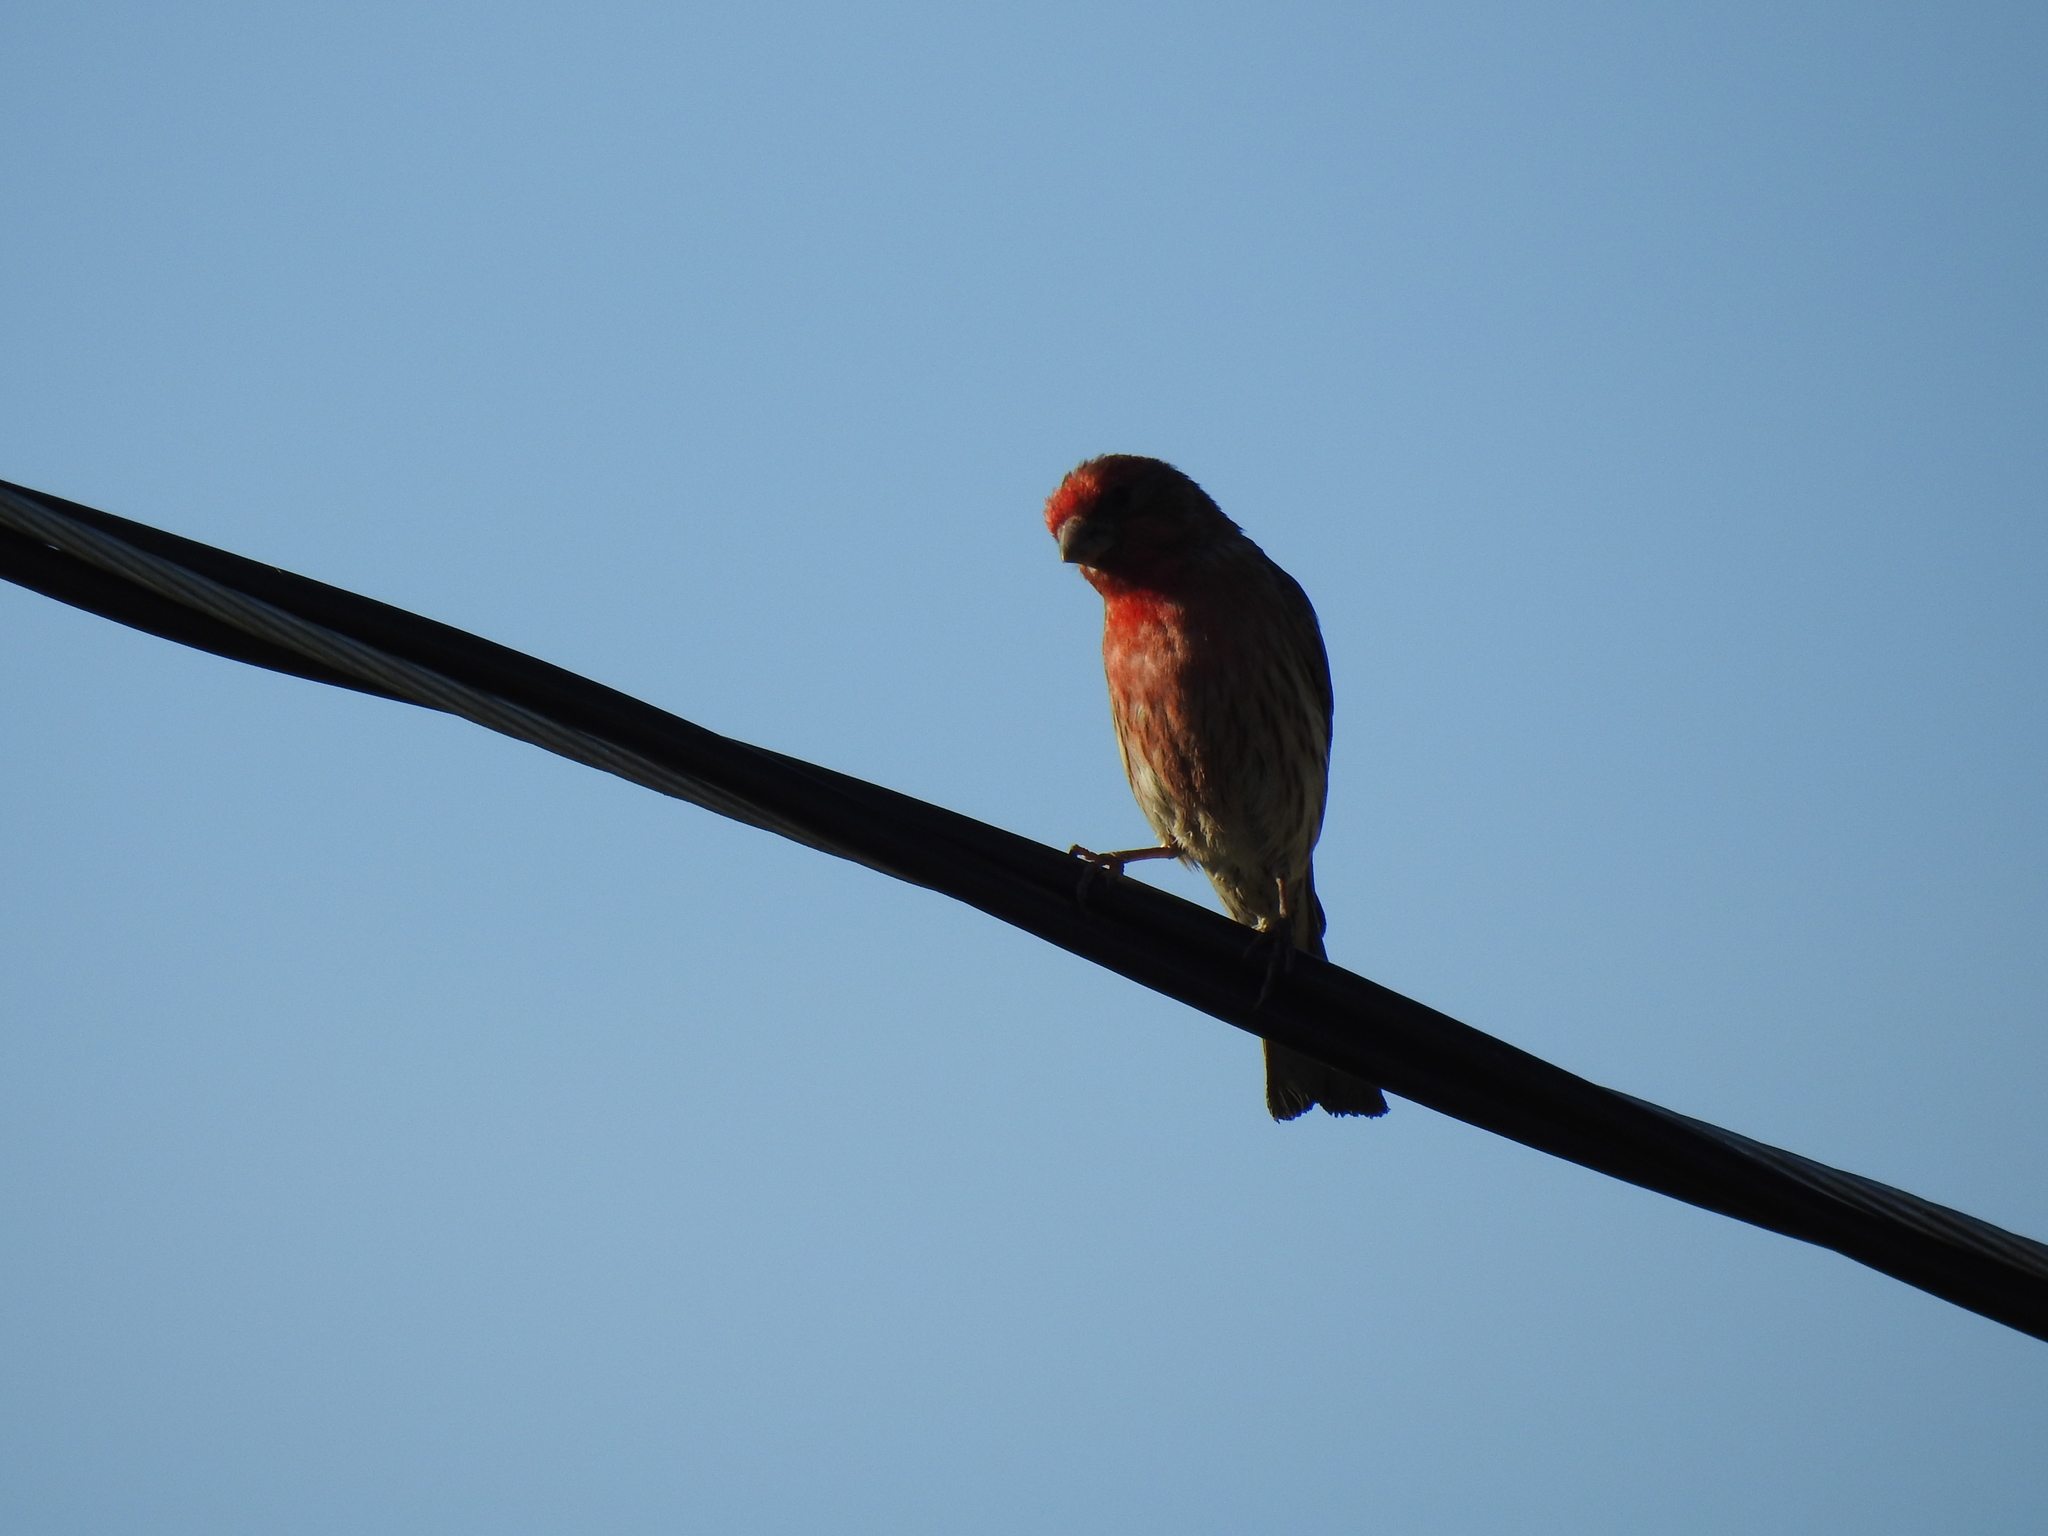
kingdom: Animalia
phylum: Chordata
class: Aves
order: Passeriformes
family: Fringillidae
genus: Haemorhous
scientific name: Haemorhous mexicanus
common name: House finch
